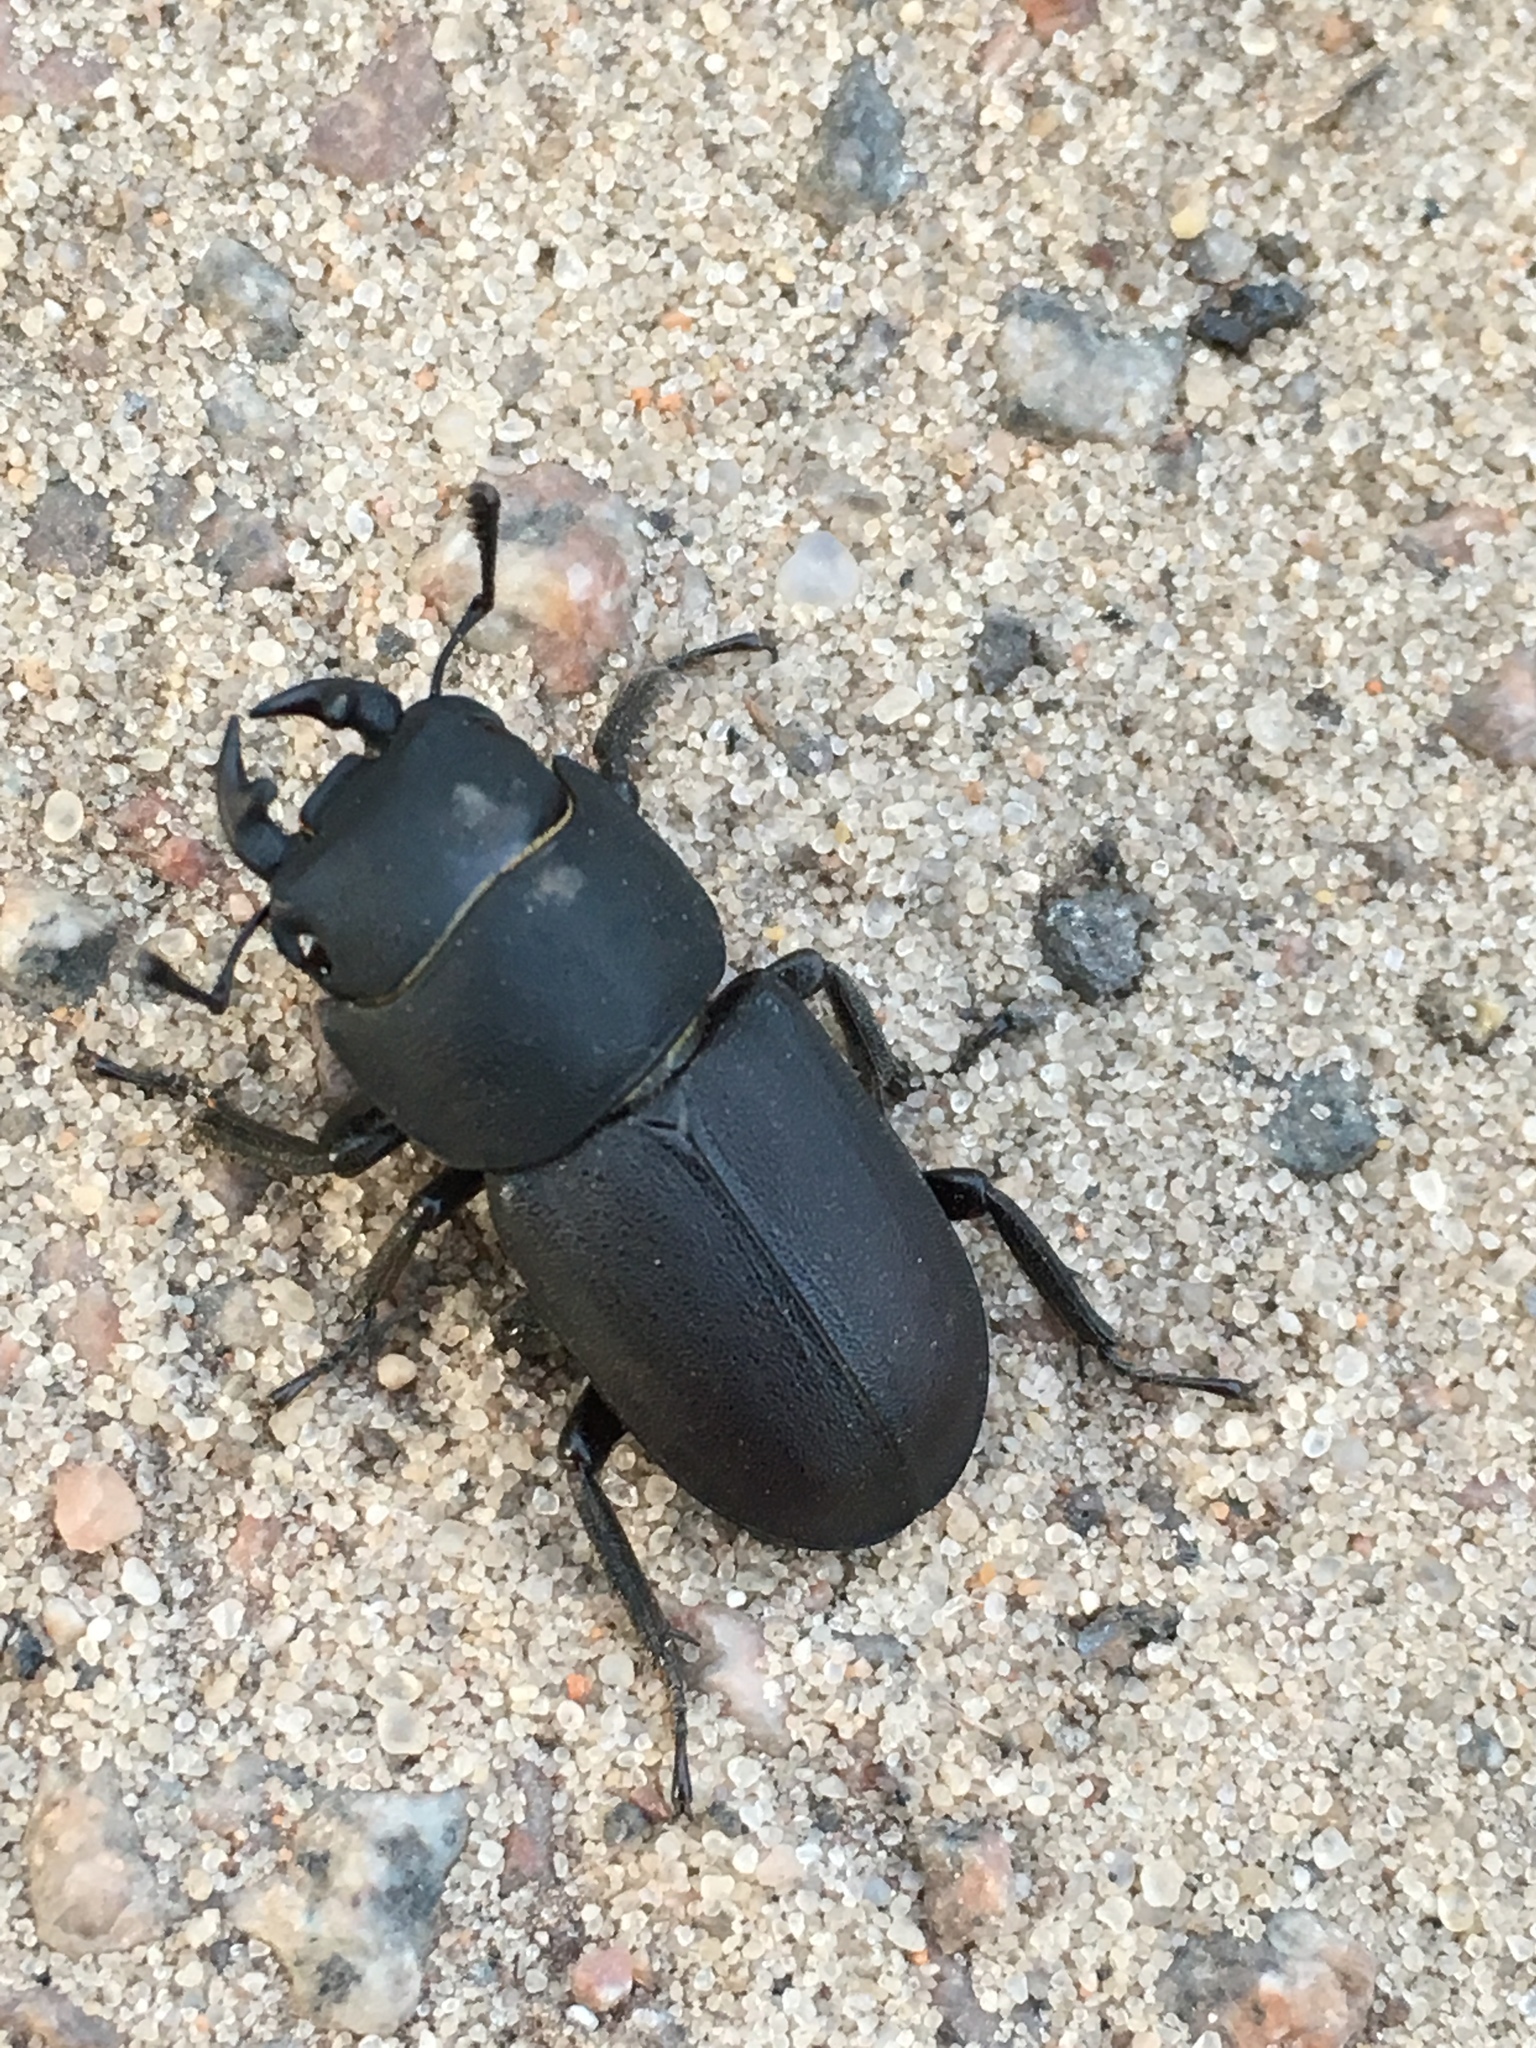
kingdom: Animalia
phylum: Arthropoda
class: Insecta
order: Coleoptera
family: Lucanidae
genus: Dorcus
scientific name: Dorcus parallelipipedus
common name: Lesser stag beetle
